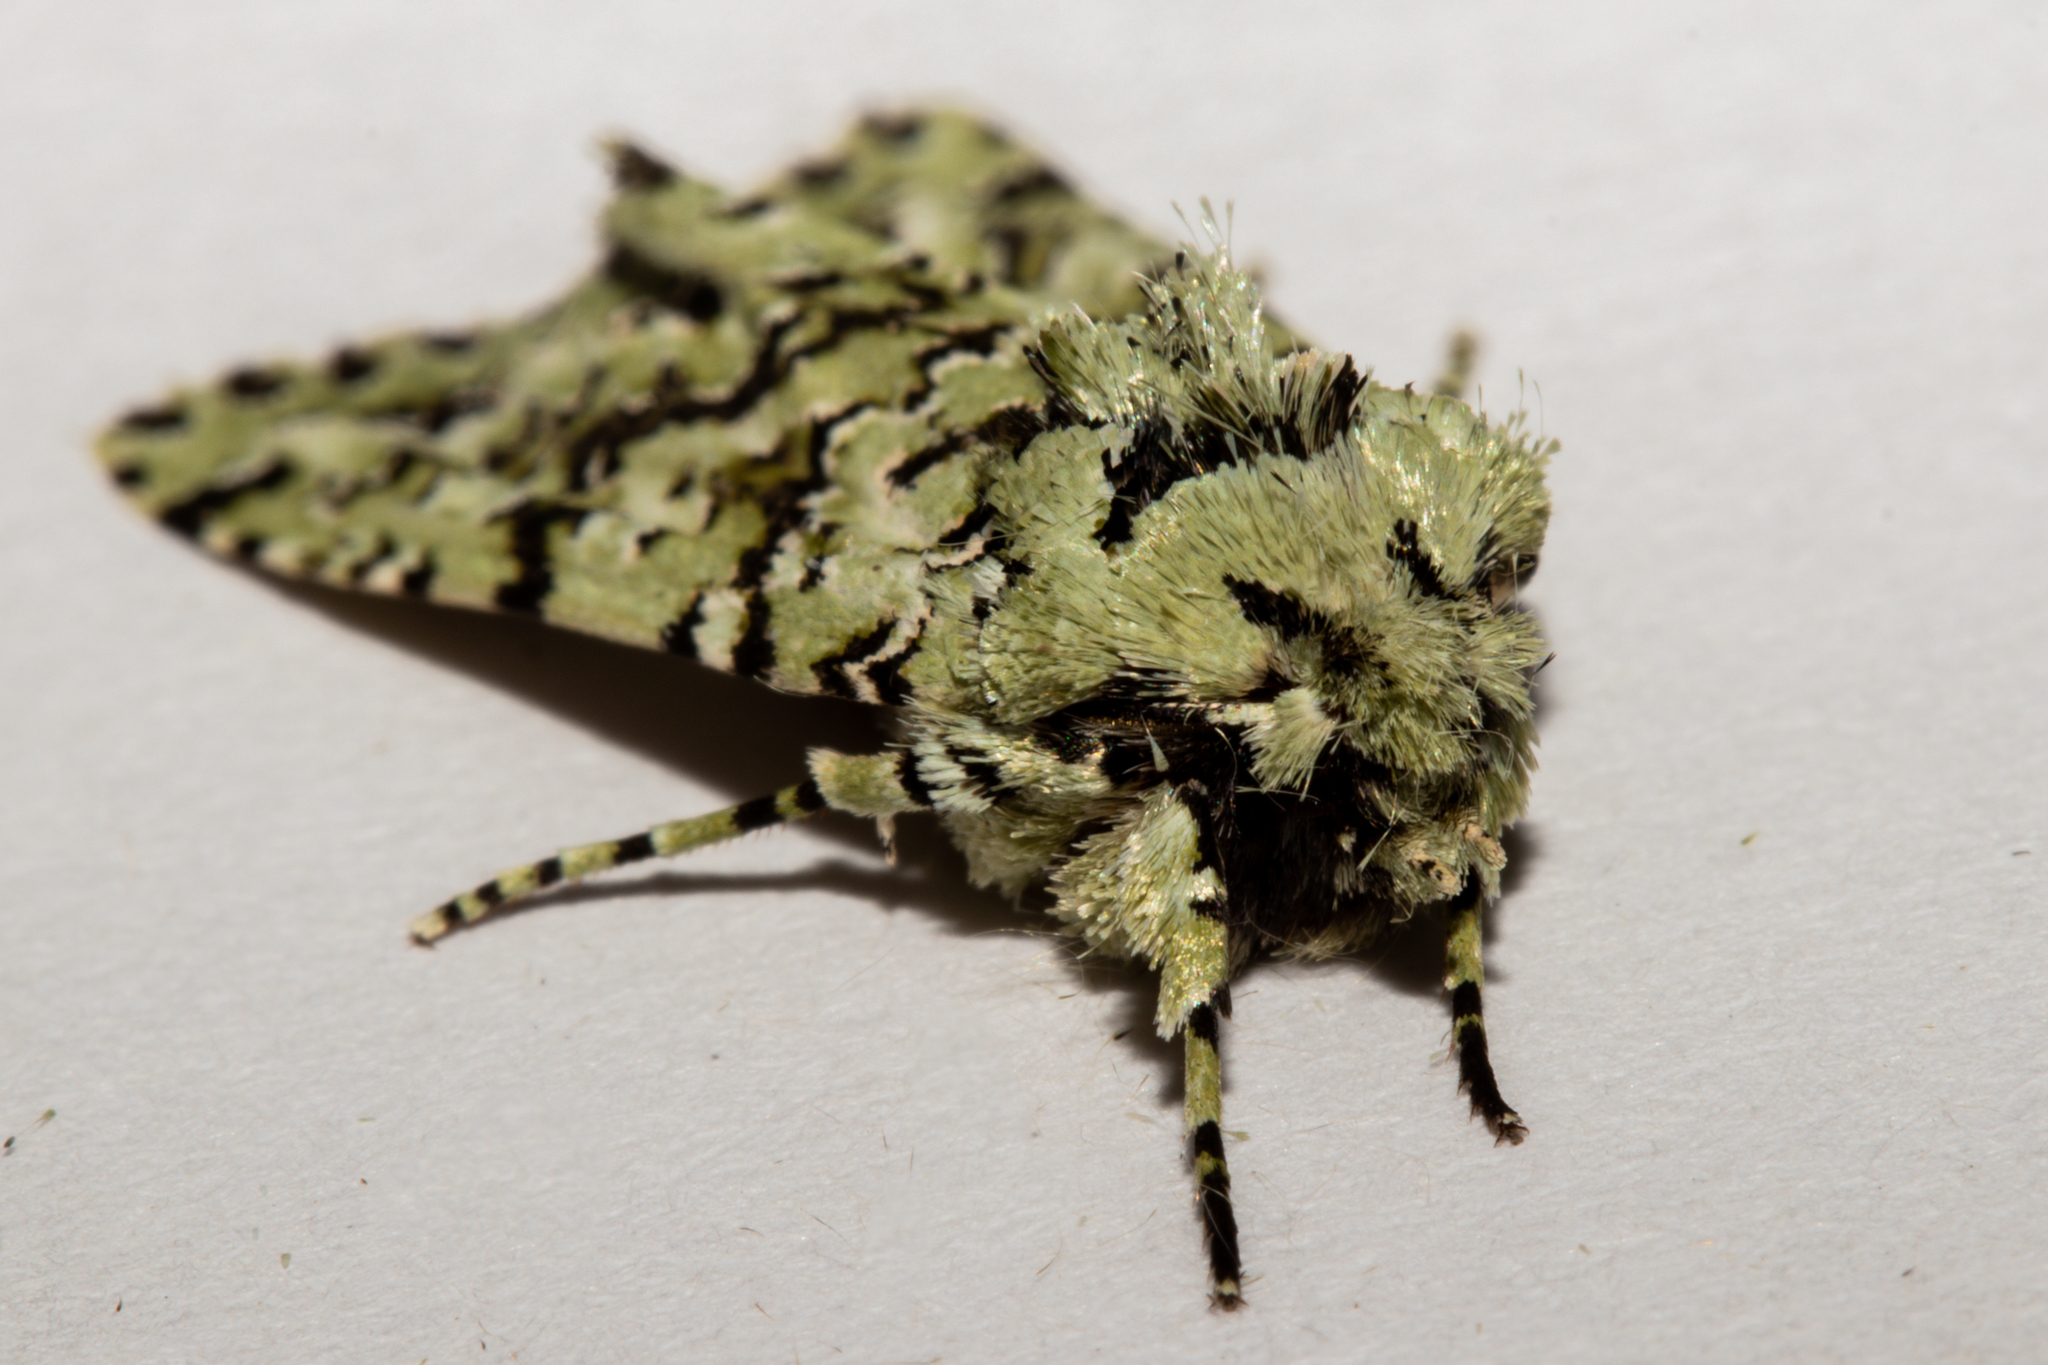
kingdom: Animalia
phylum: Arthropoda
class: Insecta
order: Lepidoptera
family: Noctuidae
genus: Meterana
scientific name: Meterana
